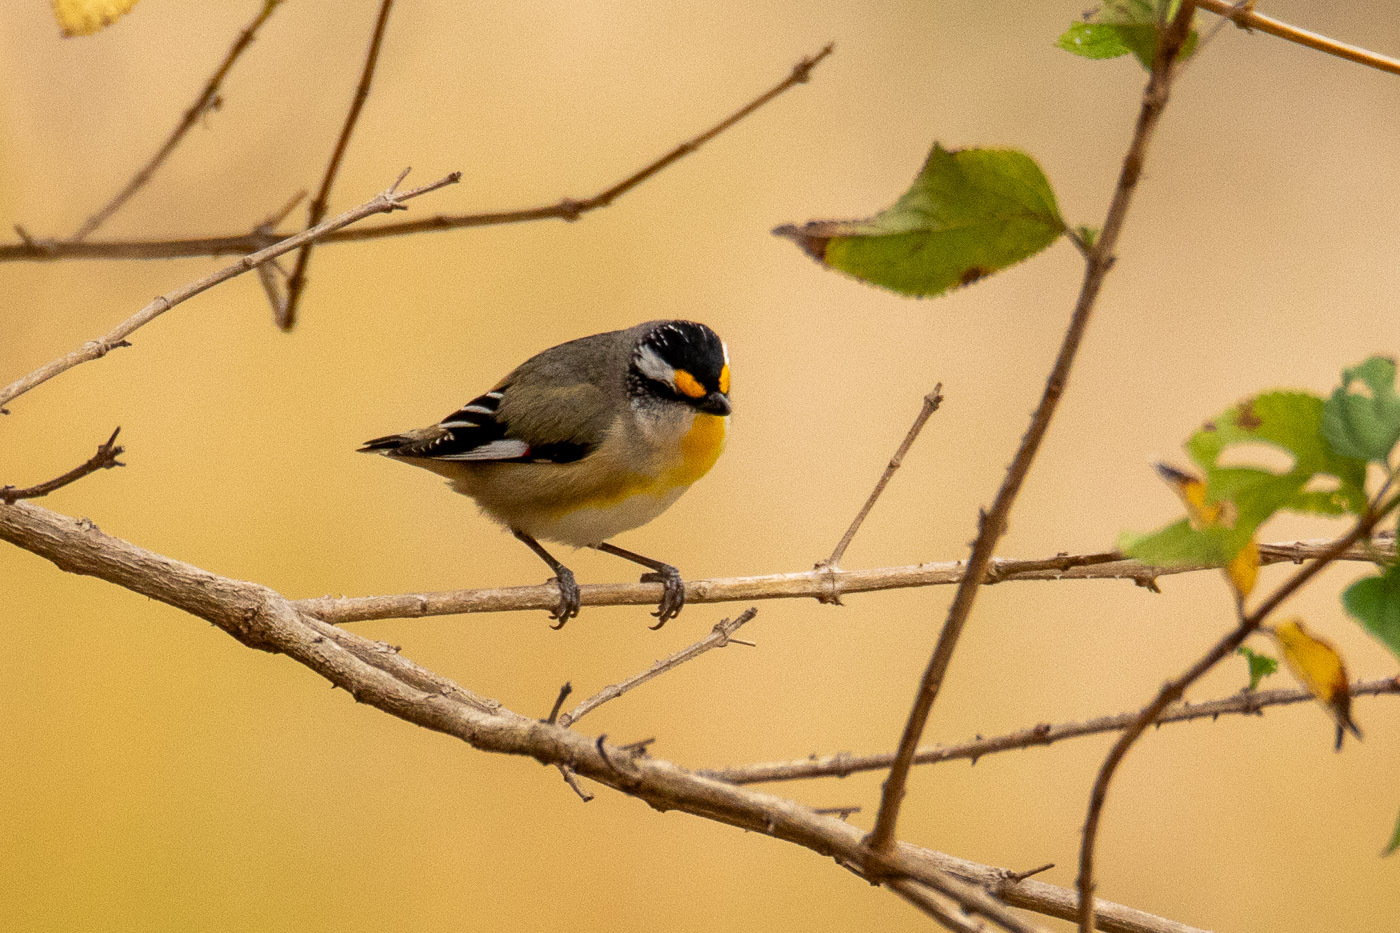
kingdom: Animalia
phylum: Chordata
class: Aves
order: Passeriformes
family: Pardalotidae
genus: Pardalotus
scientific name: Pardalotus striatus
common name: Striated pardalote
